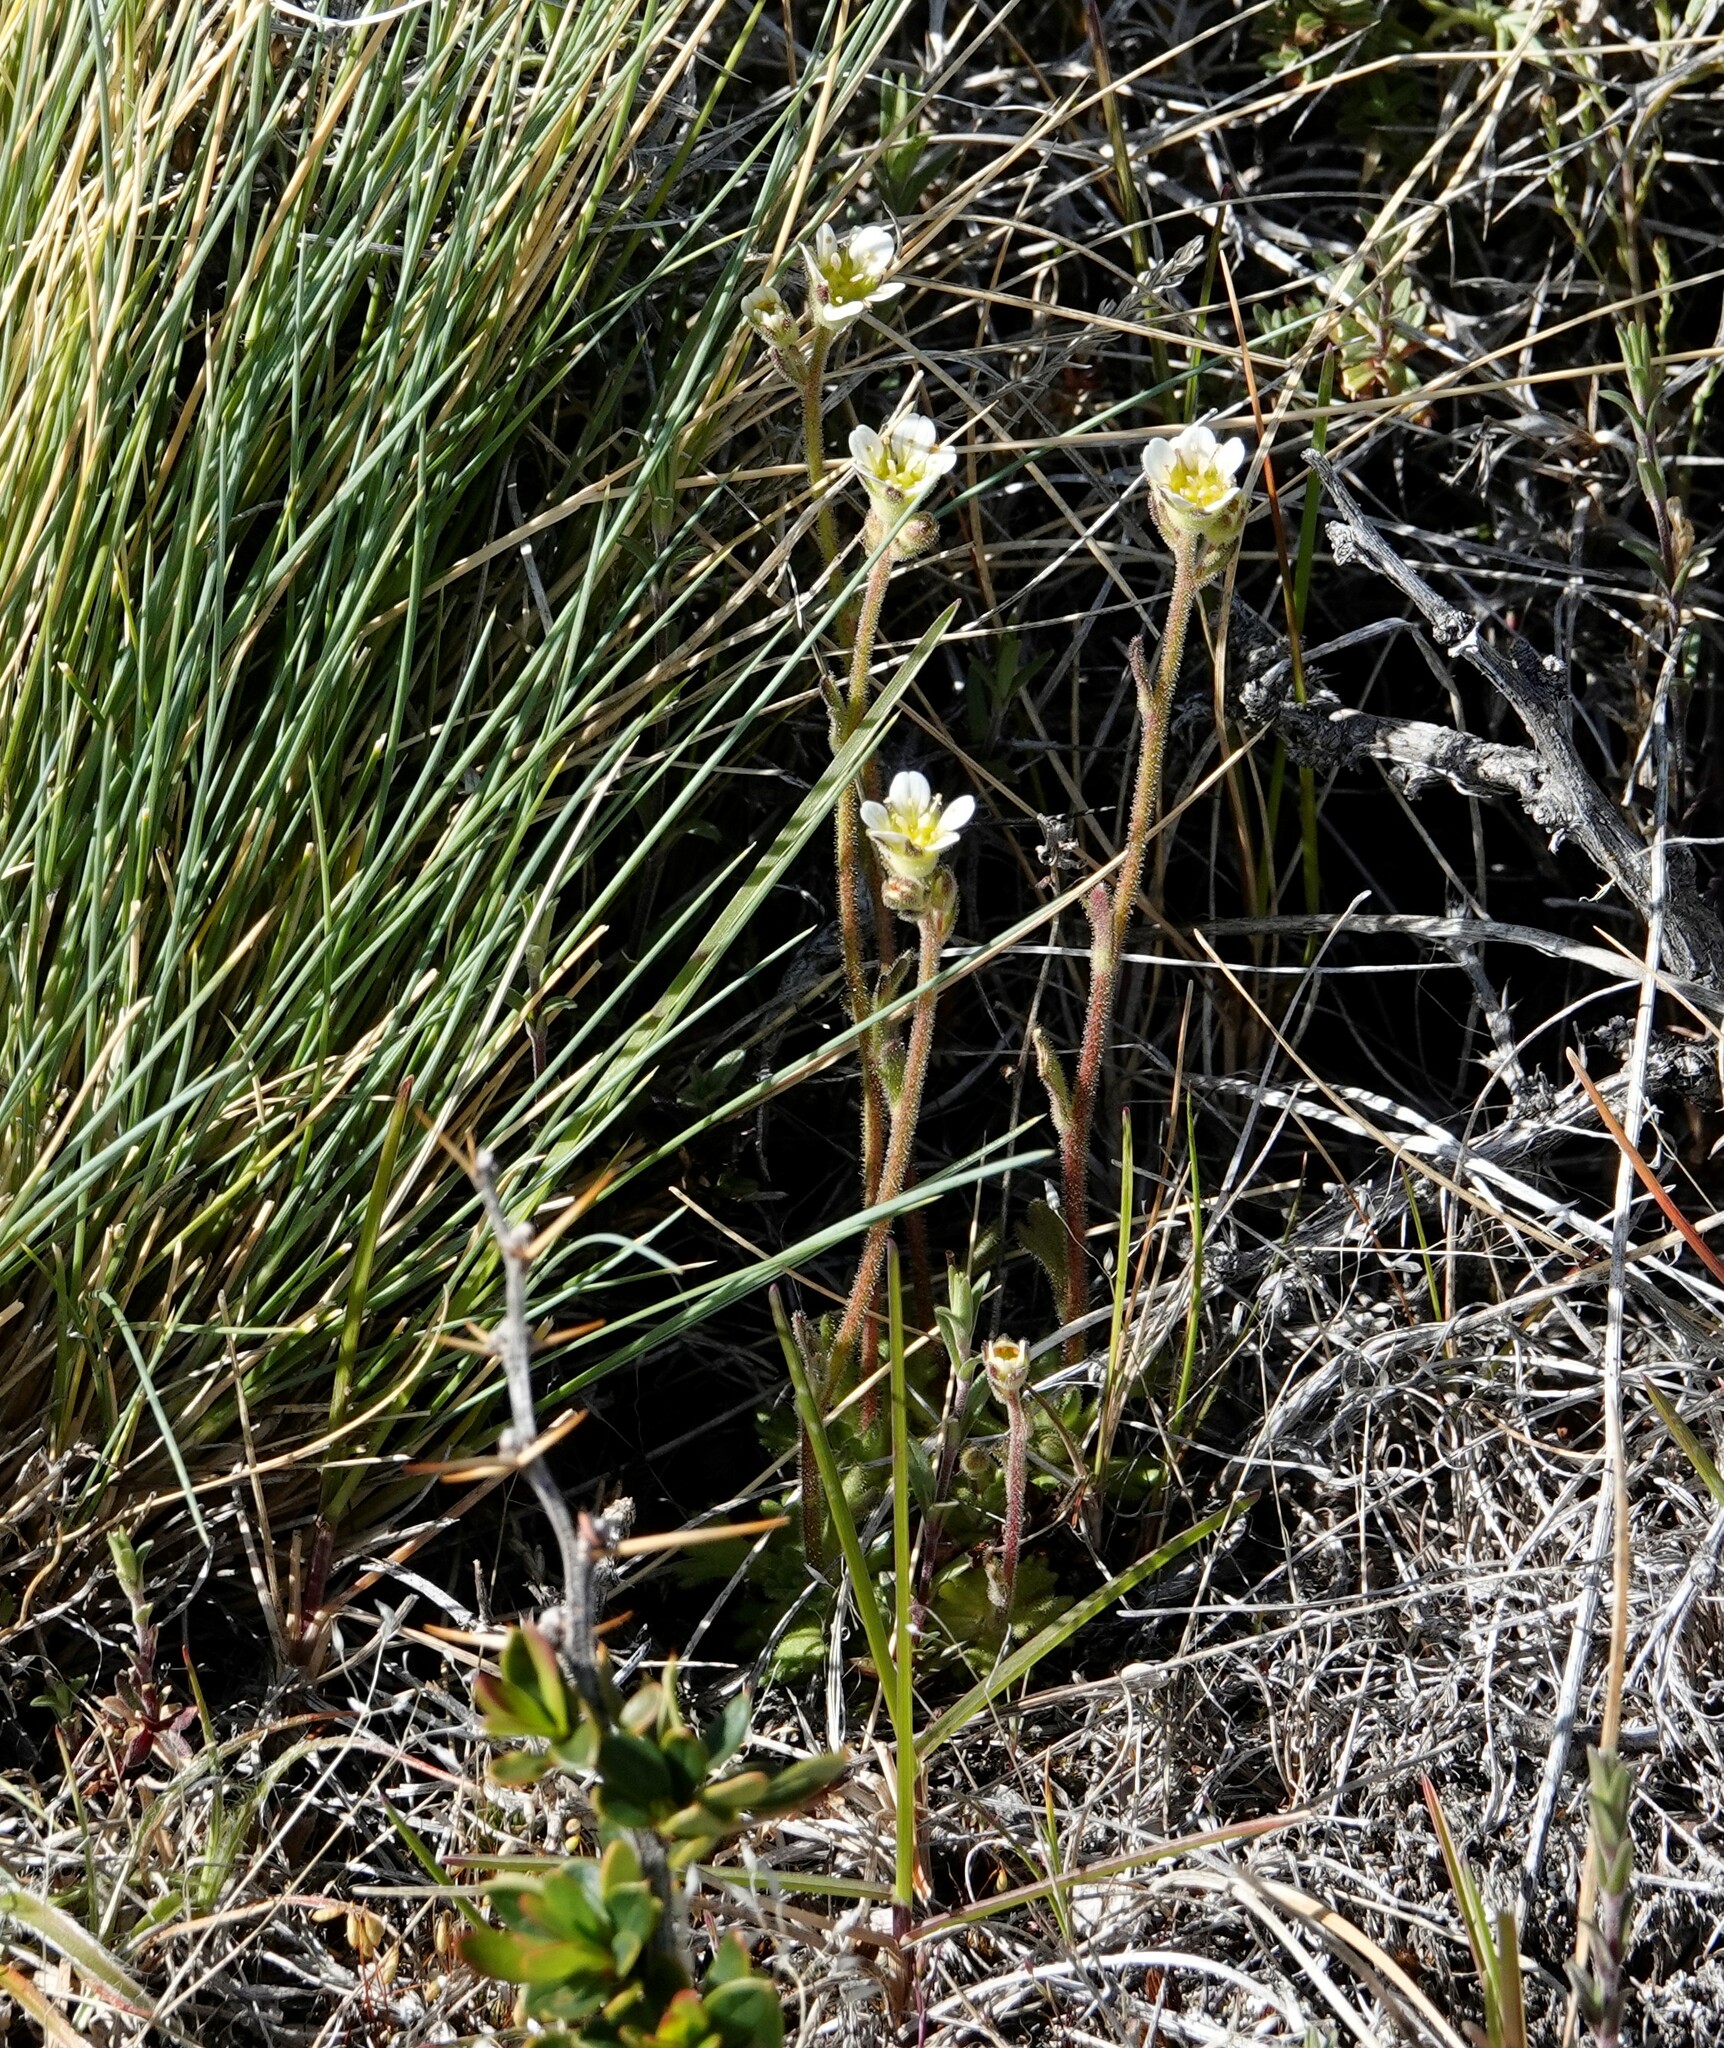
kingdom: Plantae
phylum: Tracheophyta
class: Magnoliopsida
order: Saxifragales
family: Saxifragaceae
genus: Saxifraga
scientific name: Saxifraga magellanica
